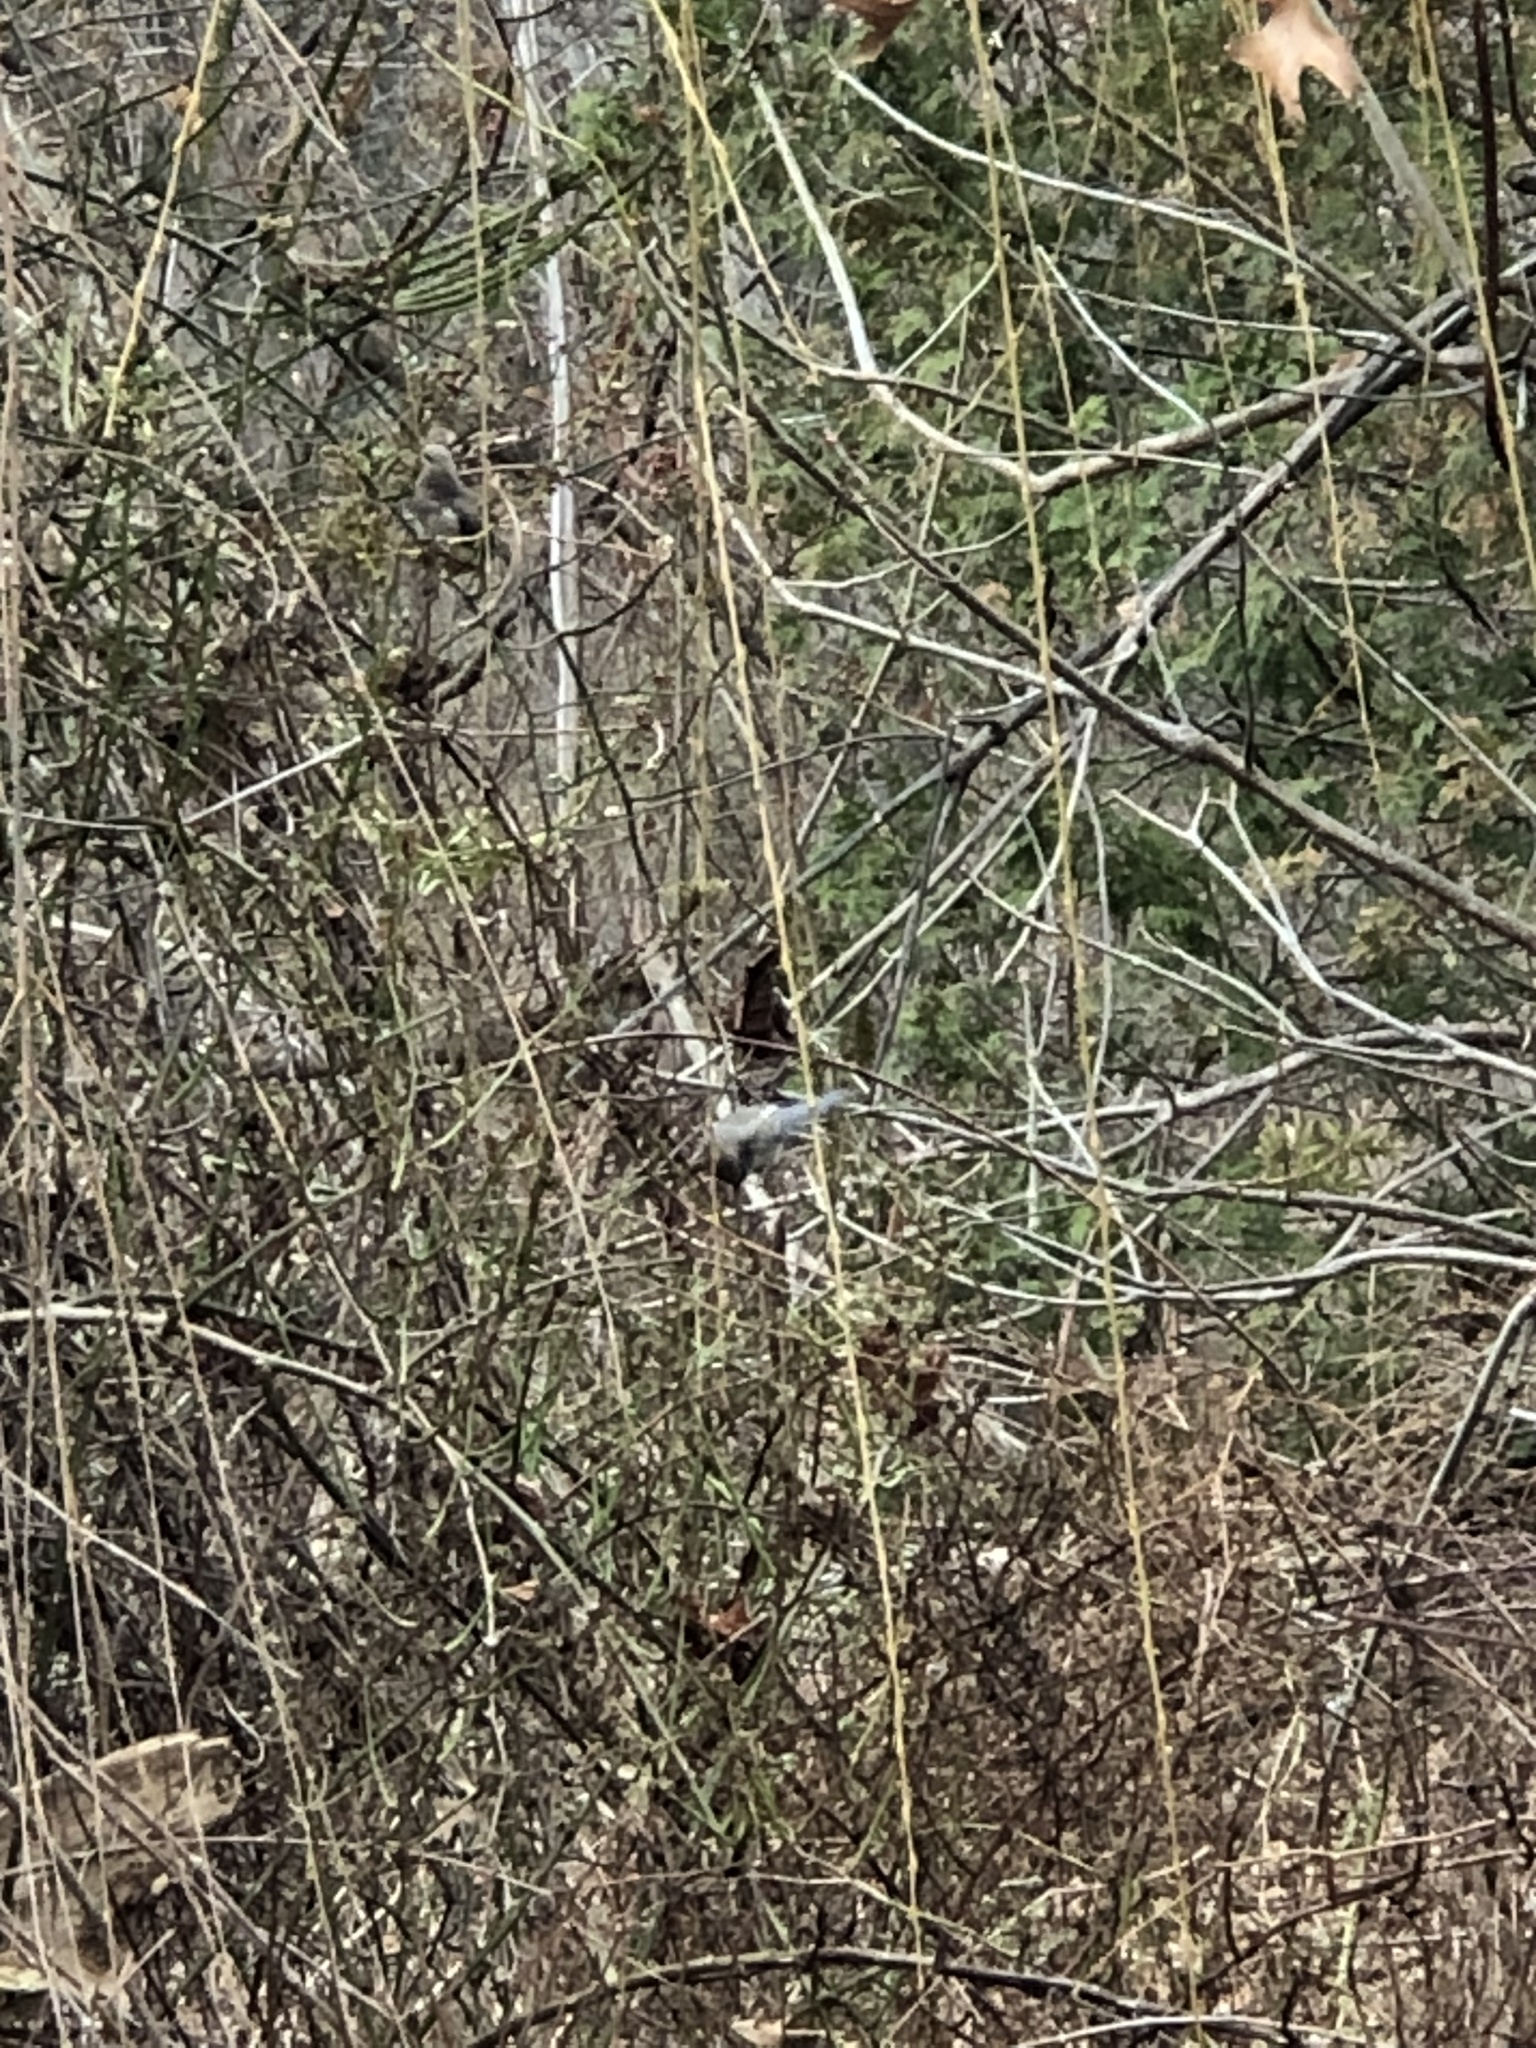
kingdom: Animalia
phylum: Chordata
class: Aves
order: Passeriformes
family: Bombycillidae
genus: Bombycilla
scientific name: Bombycilla cedrorum
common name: Cedar waxwing
